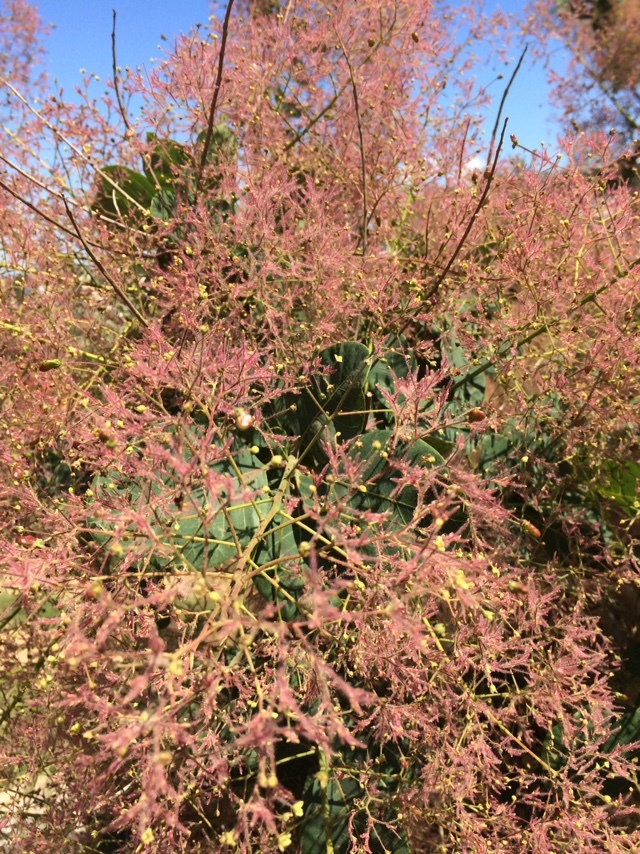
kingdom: Plantae
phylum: Tracheophyta
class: Magnoliopsida
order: Sapindales
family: Anacardiaceae
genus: Cotinus
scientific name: Cotinus coggygria
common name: Smoke-tree
